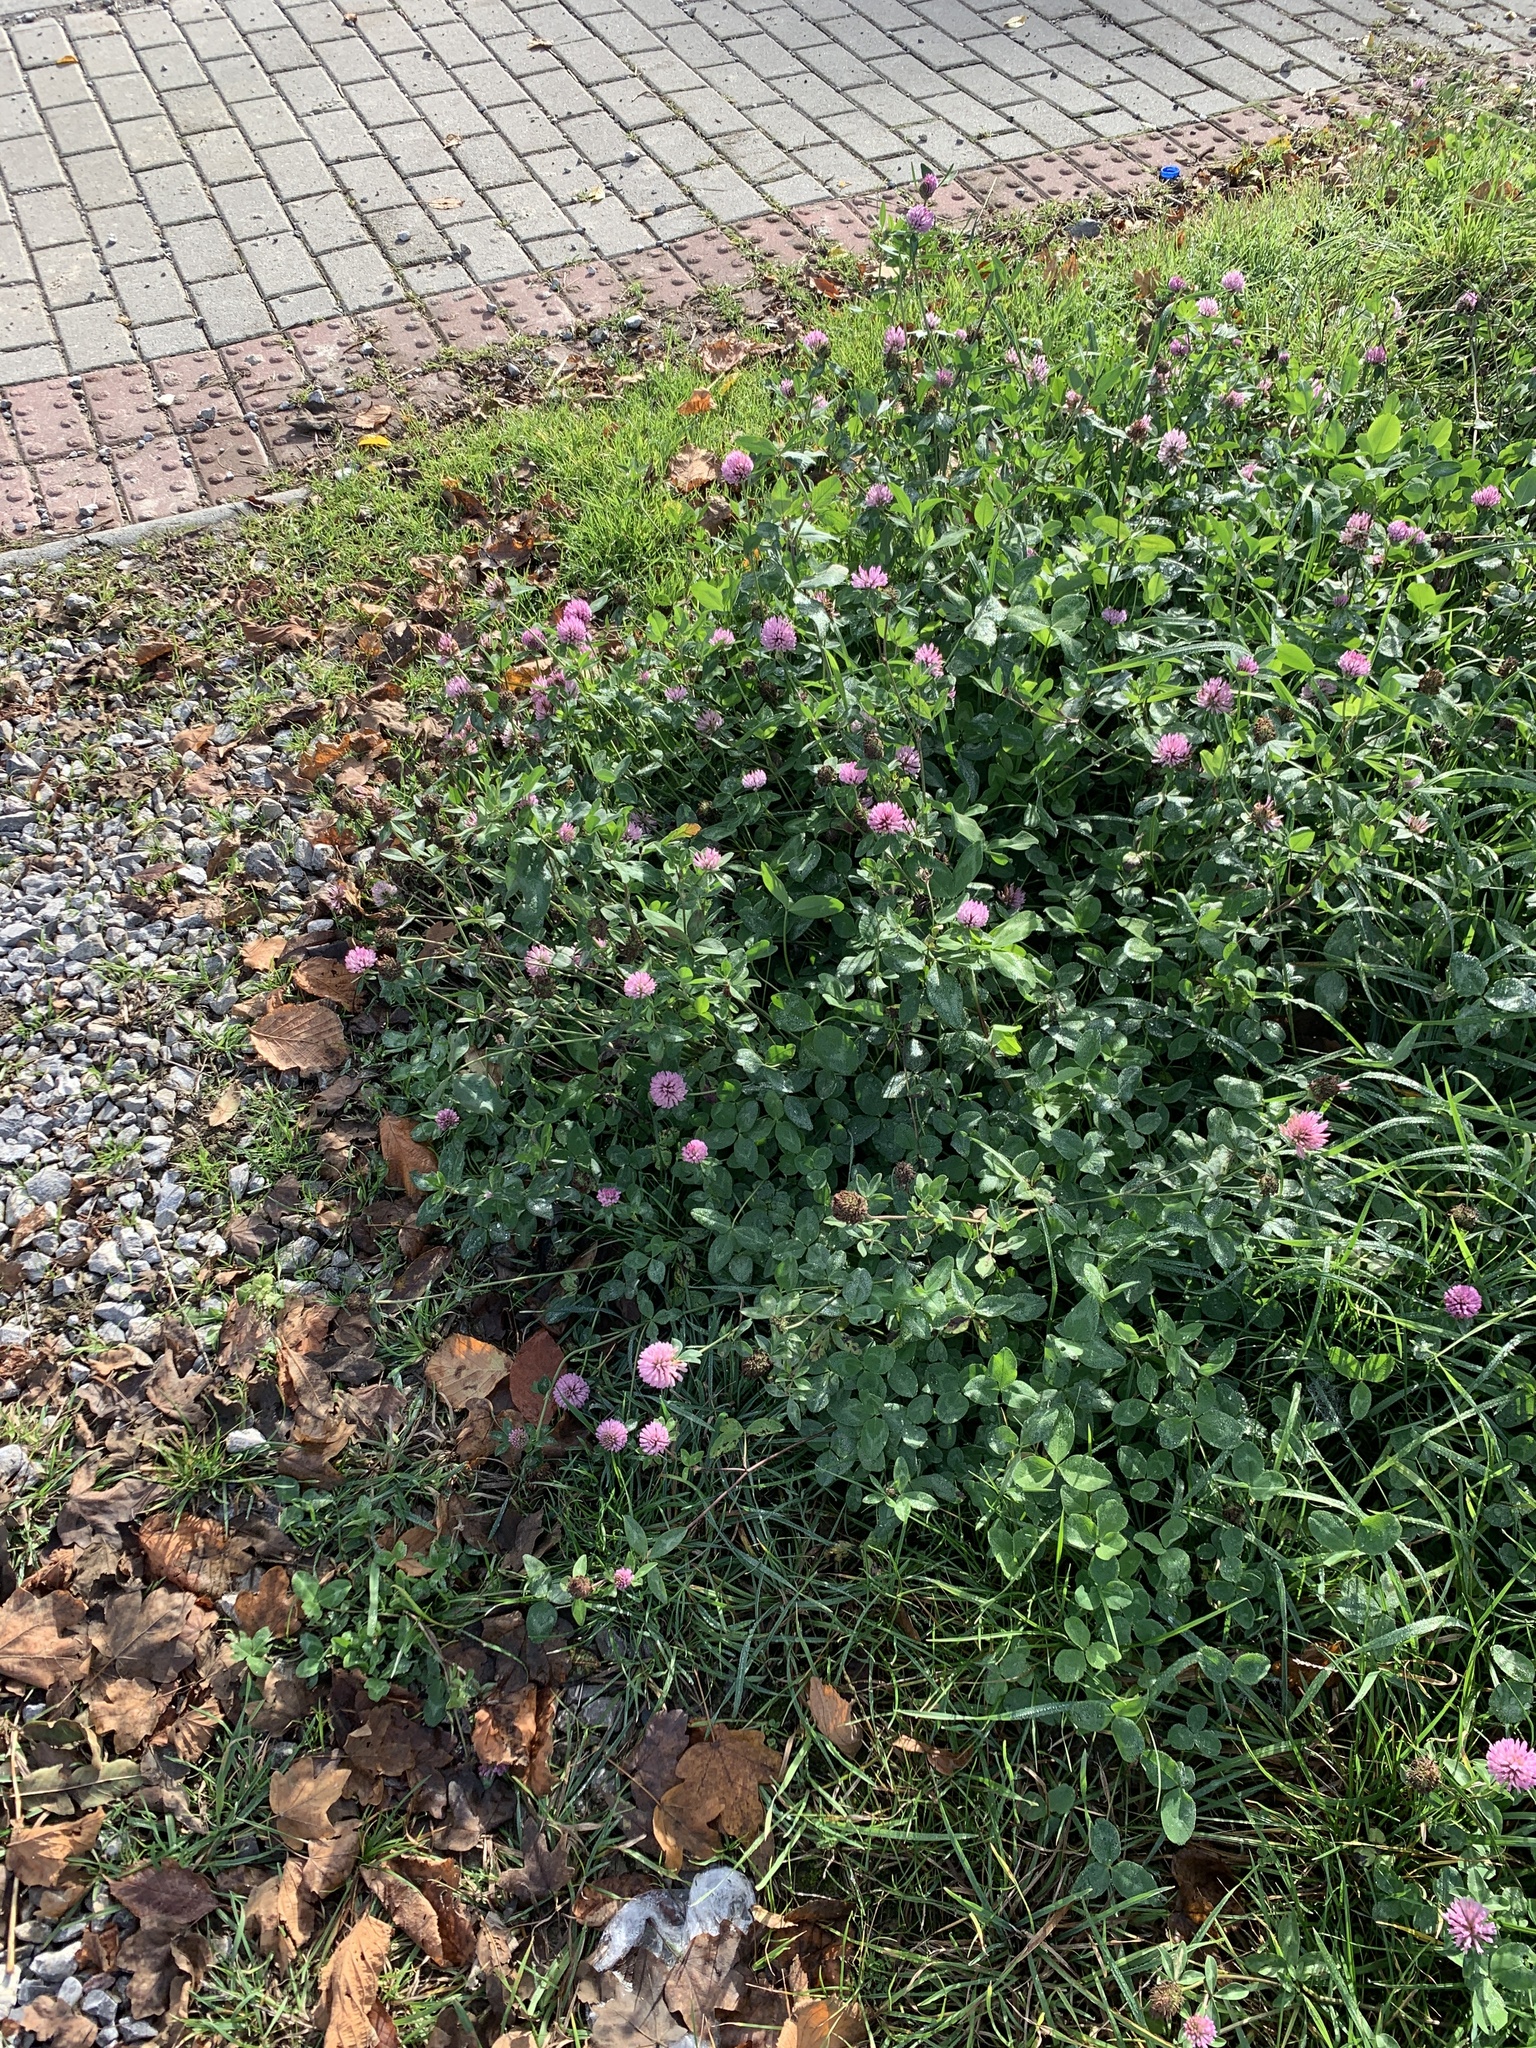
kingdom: Plantae
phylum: Tracheophyta
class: Magnoliopsida
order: Fabales
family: Fabaceae
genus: Trifolium
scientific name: Trifolium pratense
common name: Red clover
